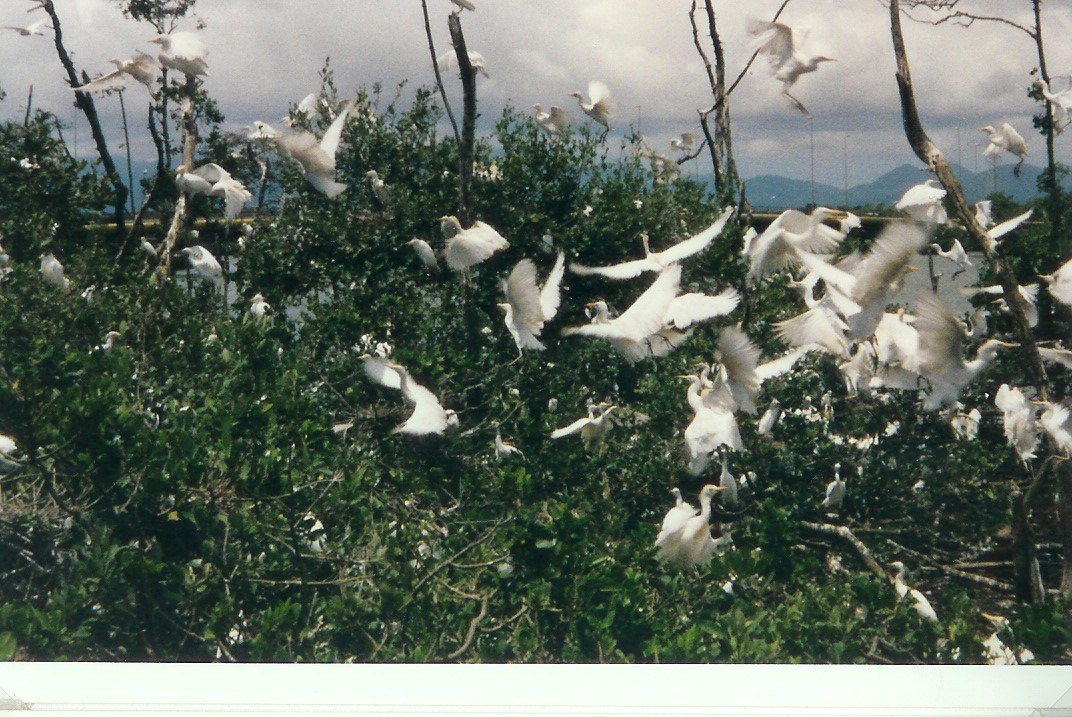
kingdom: Animalia
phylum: Chordata
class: Aves
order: Pelecaniformes
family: Ardeidae
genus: Bubulcus
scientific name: Bubulcus ibis
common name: Cattle egret
